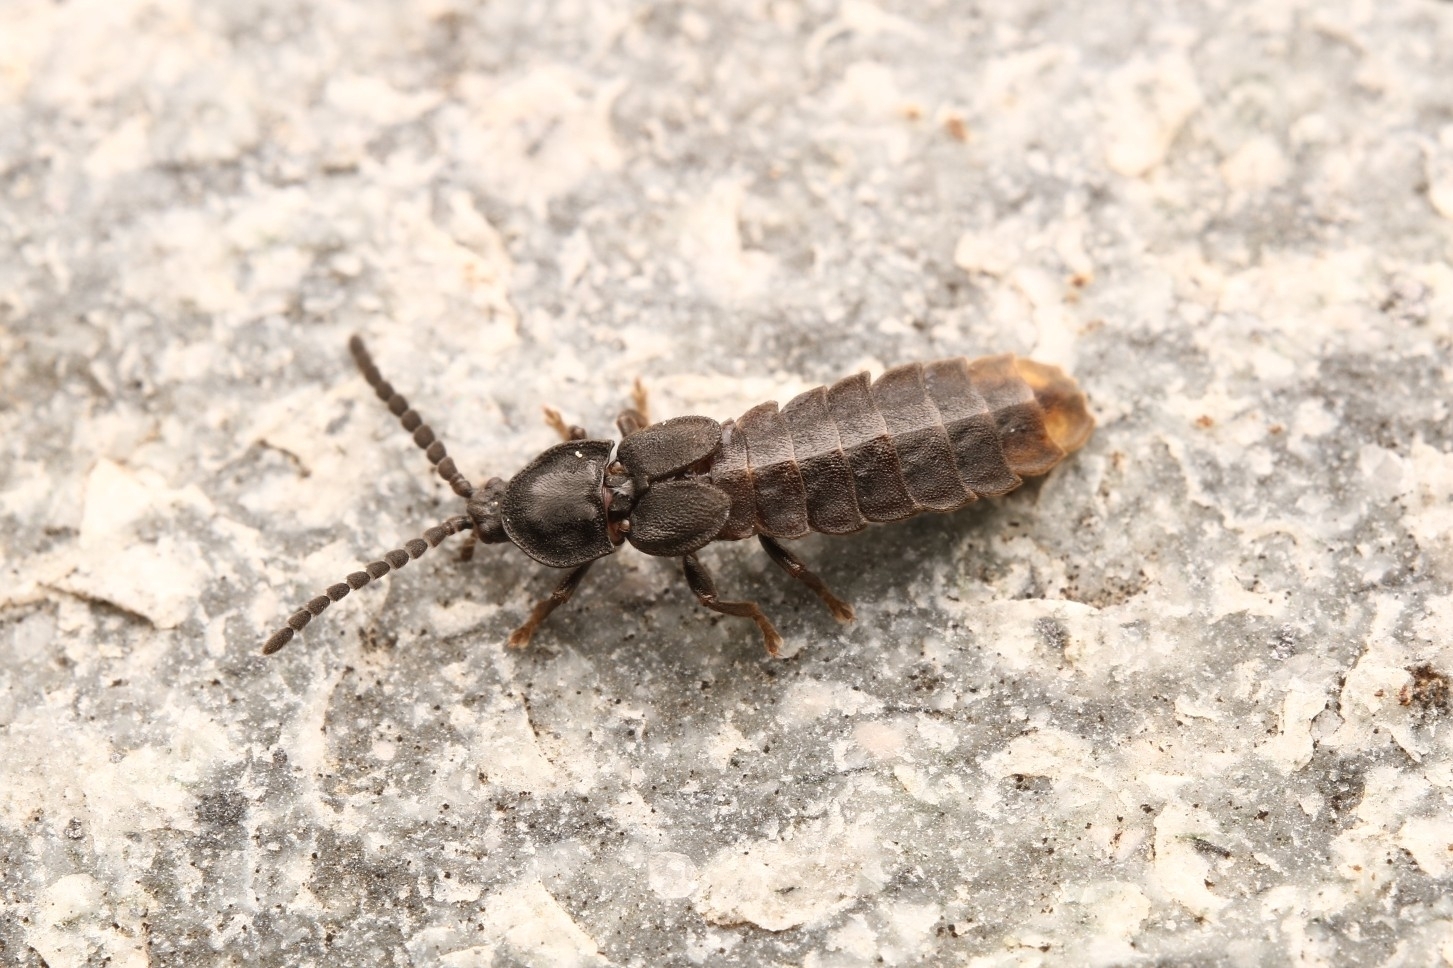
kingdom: Animalia
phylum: Arthropoda
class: Insecta
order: Coleoptera
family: Lampyridae
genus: Phosphaenus
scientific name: Phosphaenus hemipterus
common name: Short-winged firefly
